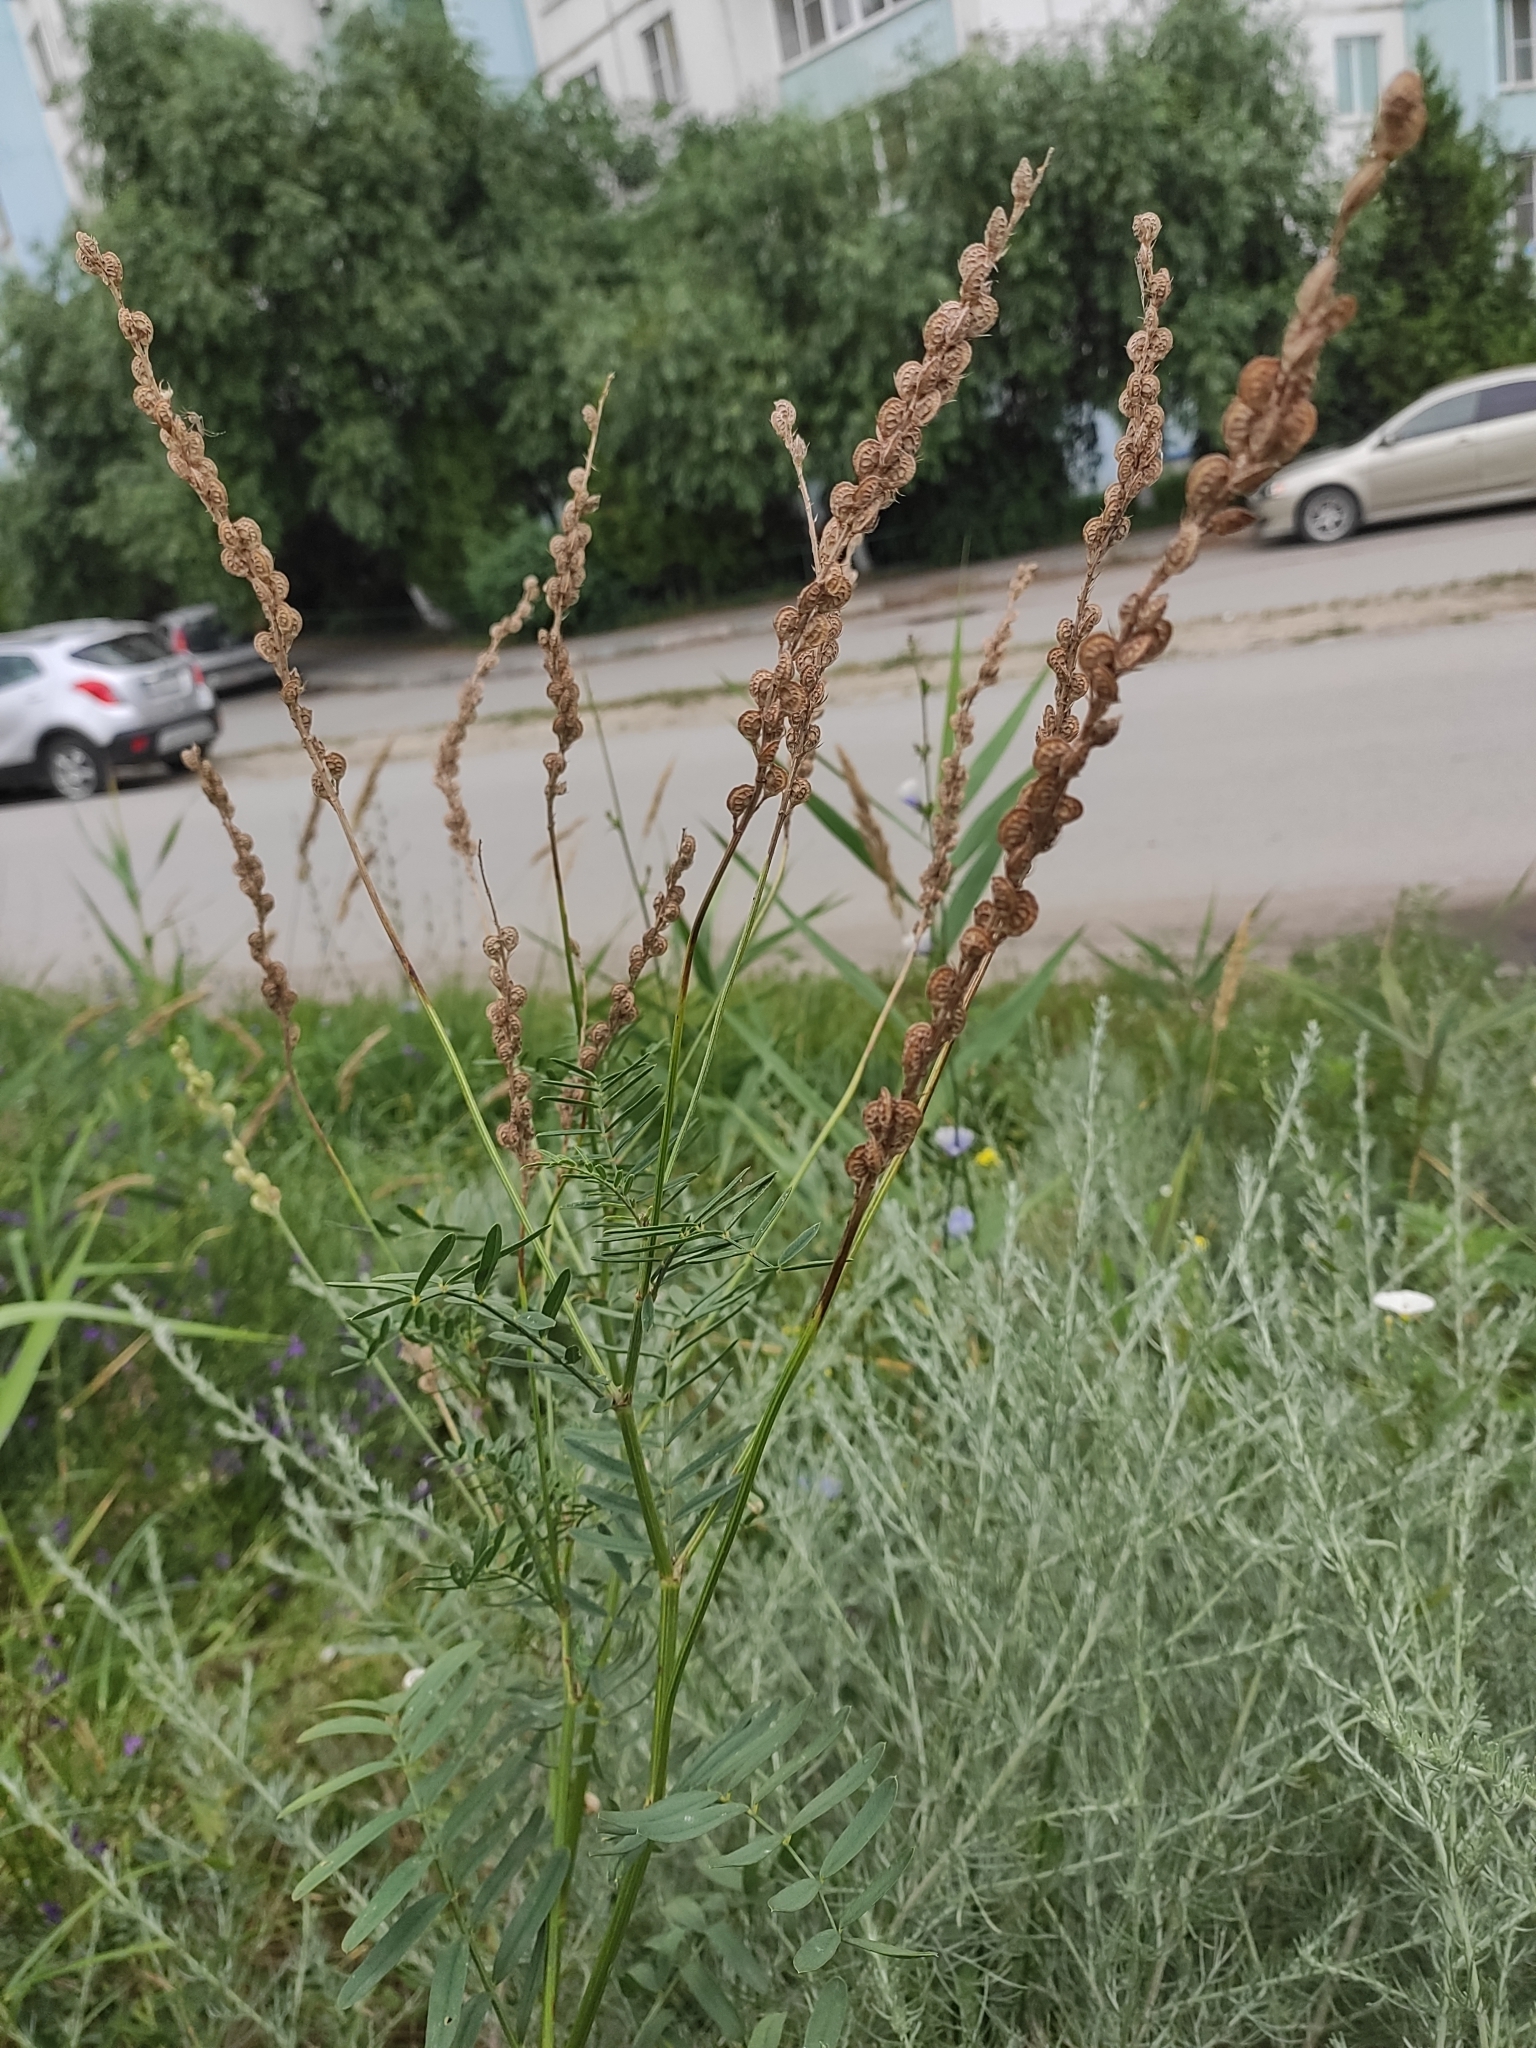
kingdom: Plantae
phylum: Tracheophyta
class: Magnoliopsida
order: Fabales
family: Fabaceae
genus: Onobrychis
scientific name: Onobrychis viciifolia
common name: Sainfoin
